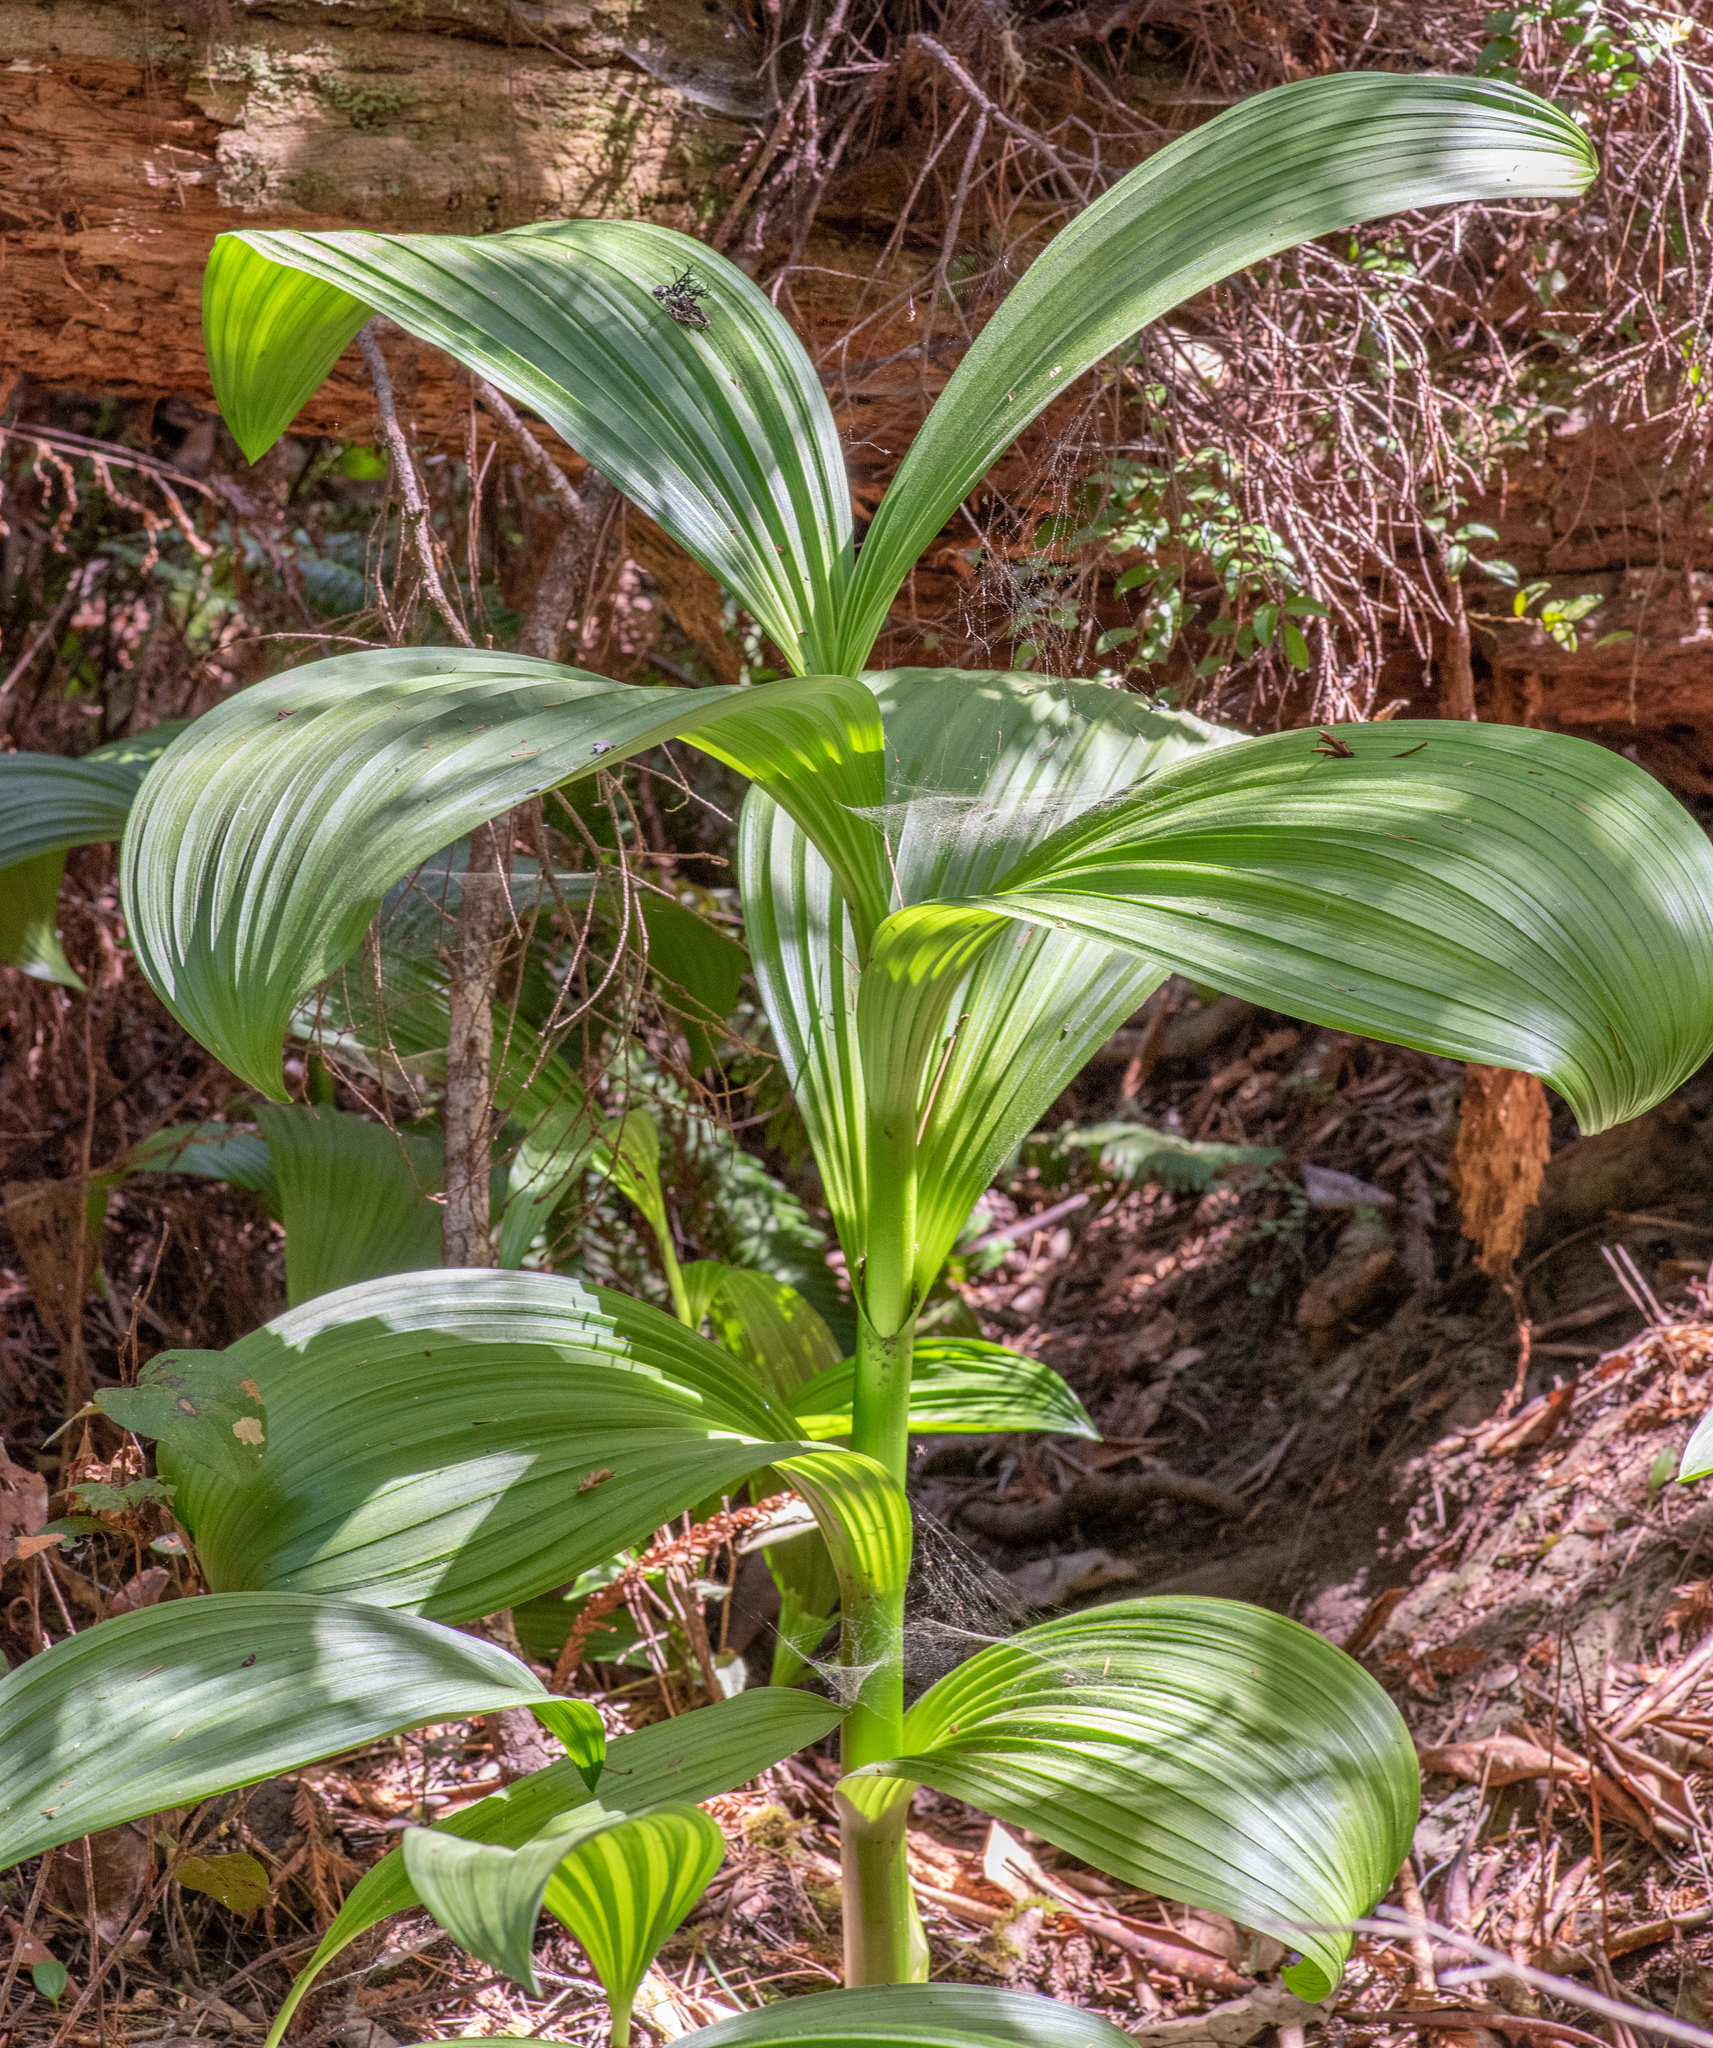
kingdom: Plantae
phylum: Tracheophyta
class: Liliopsida
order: Liliales
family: Melanthiaceae
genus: Veratrum
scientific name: Veratrum fimbriatum
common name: Fringe false hellobore
